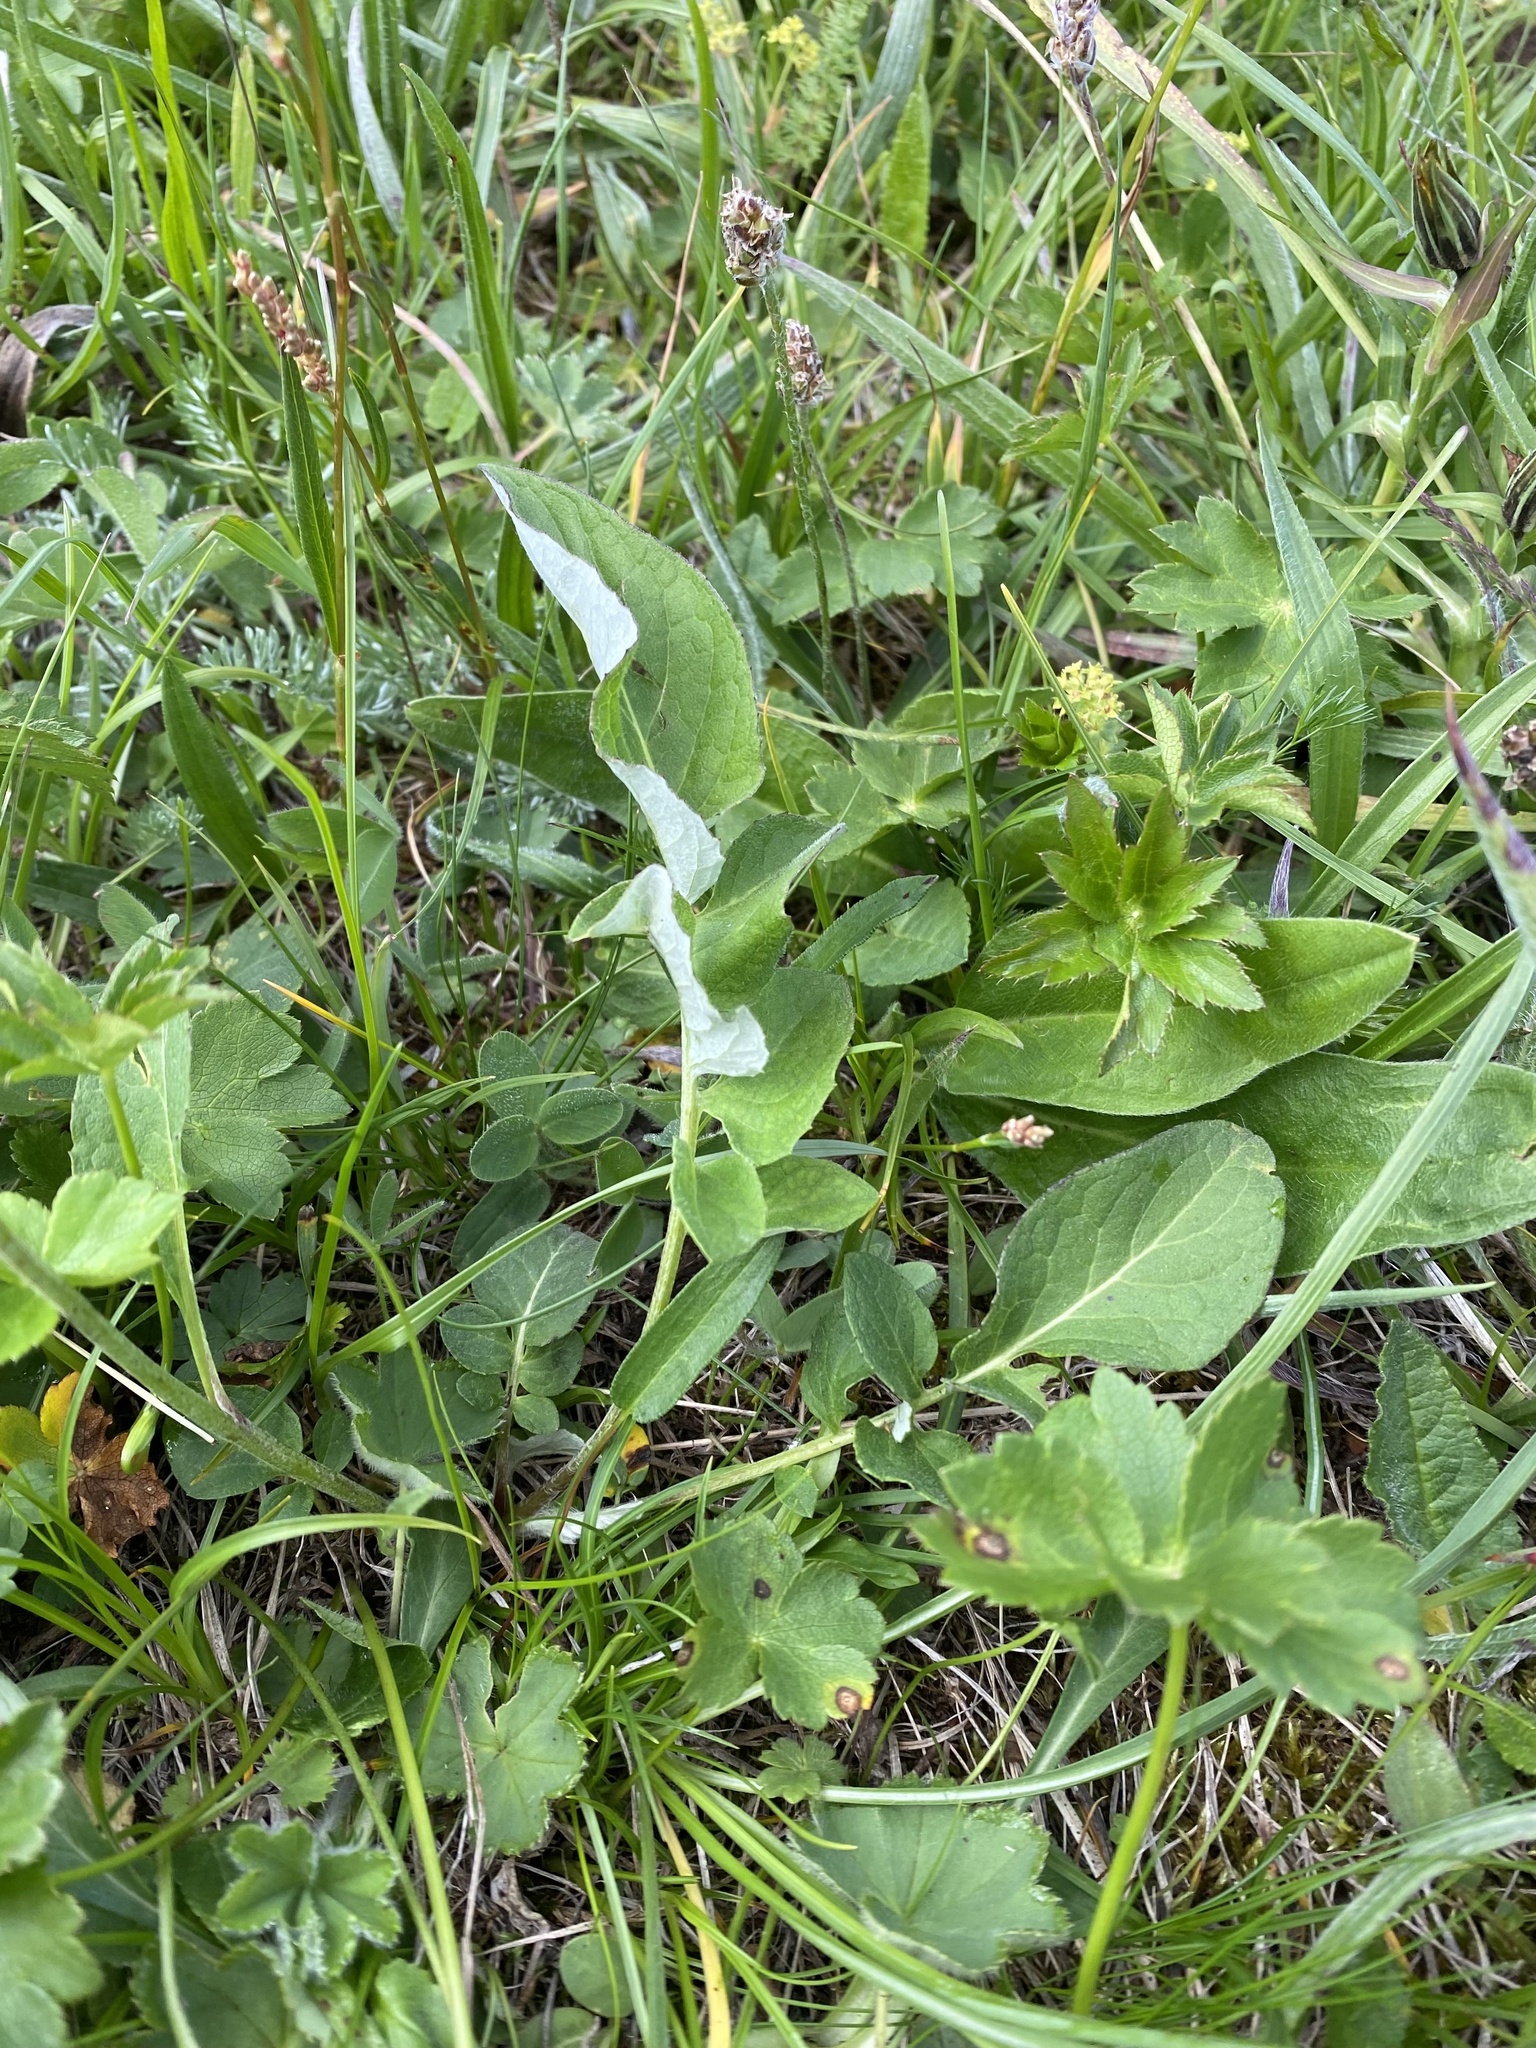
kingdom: Plantae
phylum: Tracheophyta
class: Magnoliopsida
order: Asterales
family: Asteraceae
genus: Psephellus
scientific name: Psephellus dealbatus
